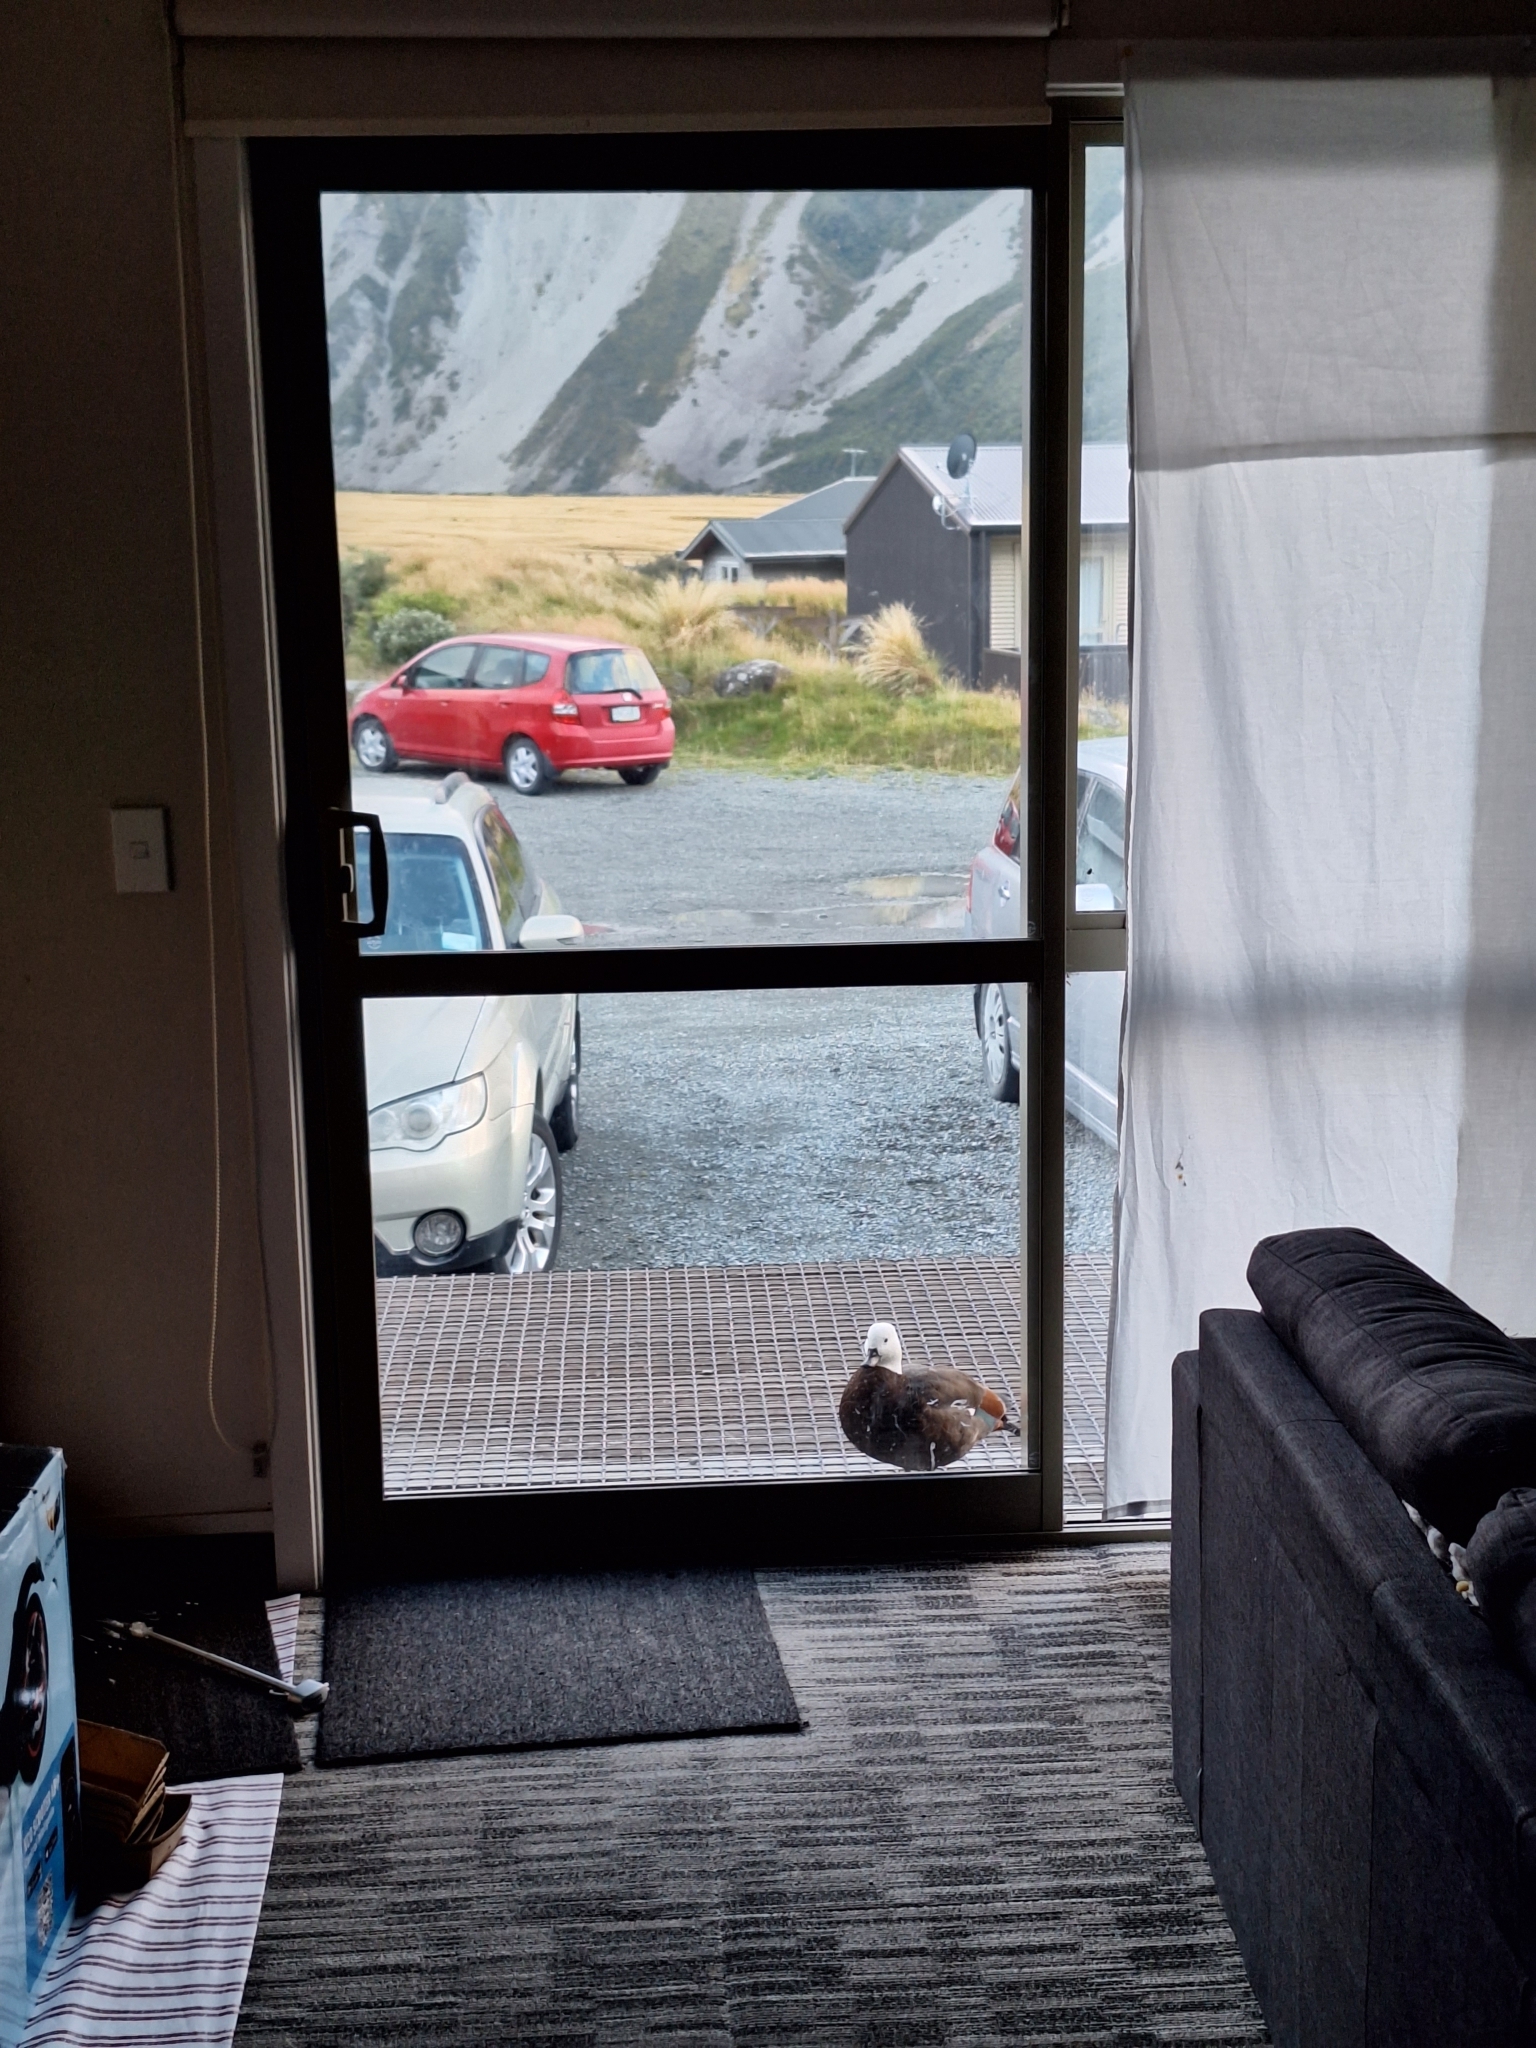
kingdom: Animalia
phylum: Chordata
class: Aves
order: Anseriformes
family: Anatidae
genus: Tadorna
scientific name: Tadorna variegata
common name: Paradise shelduck
